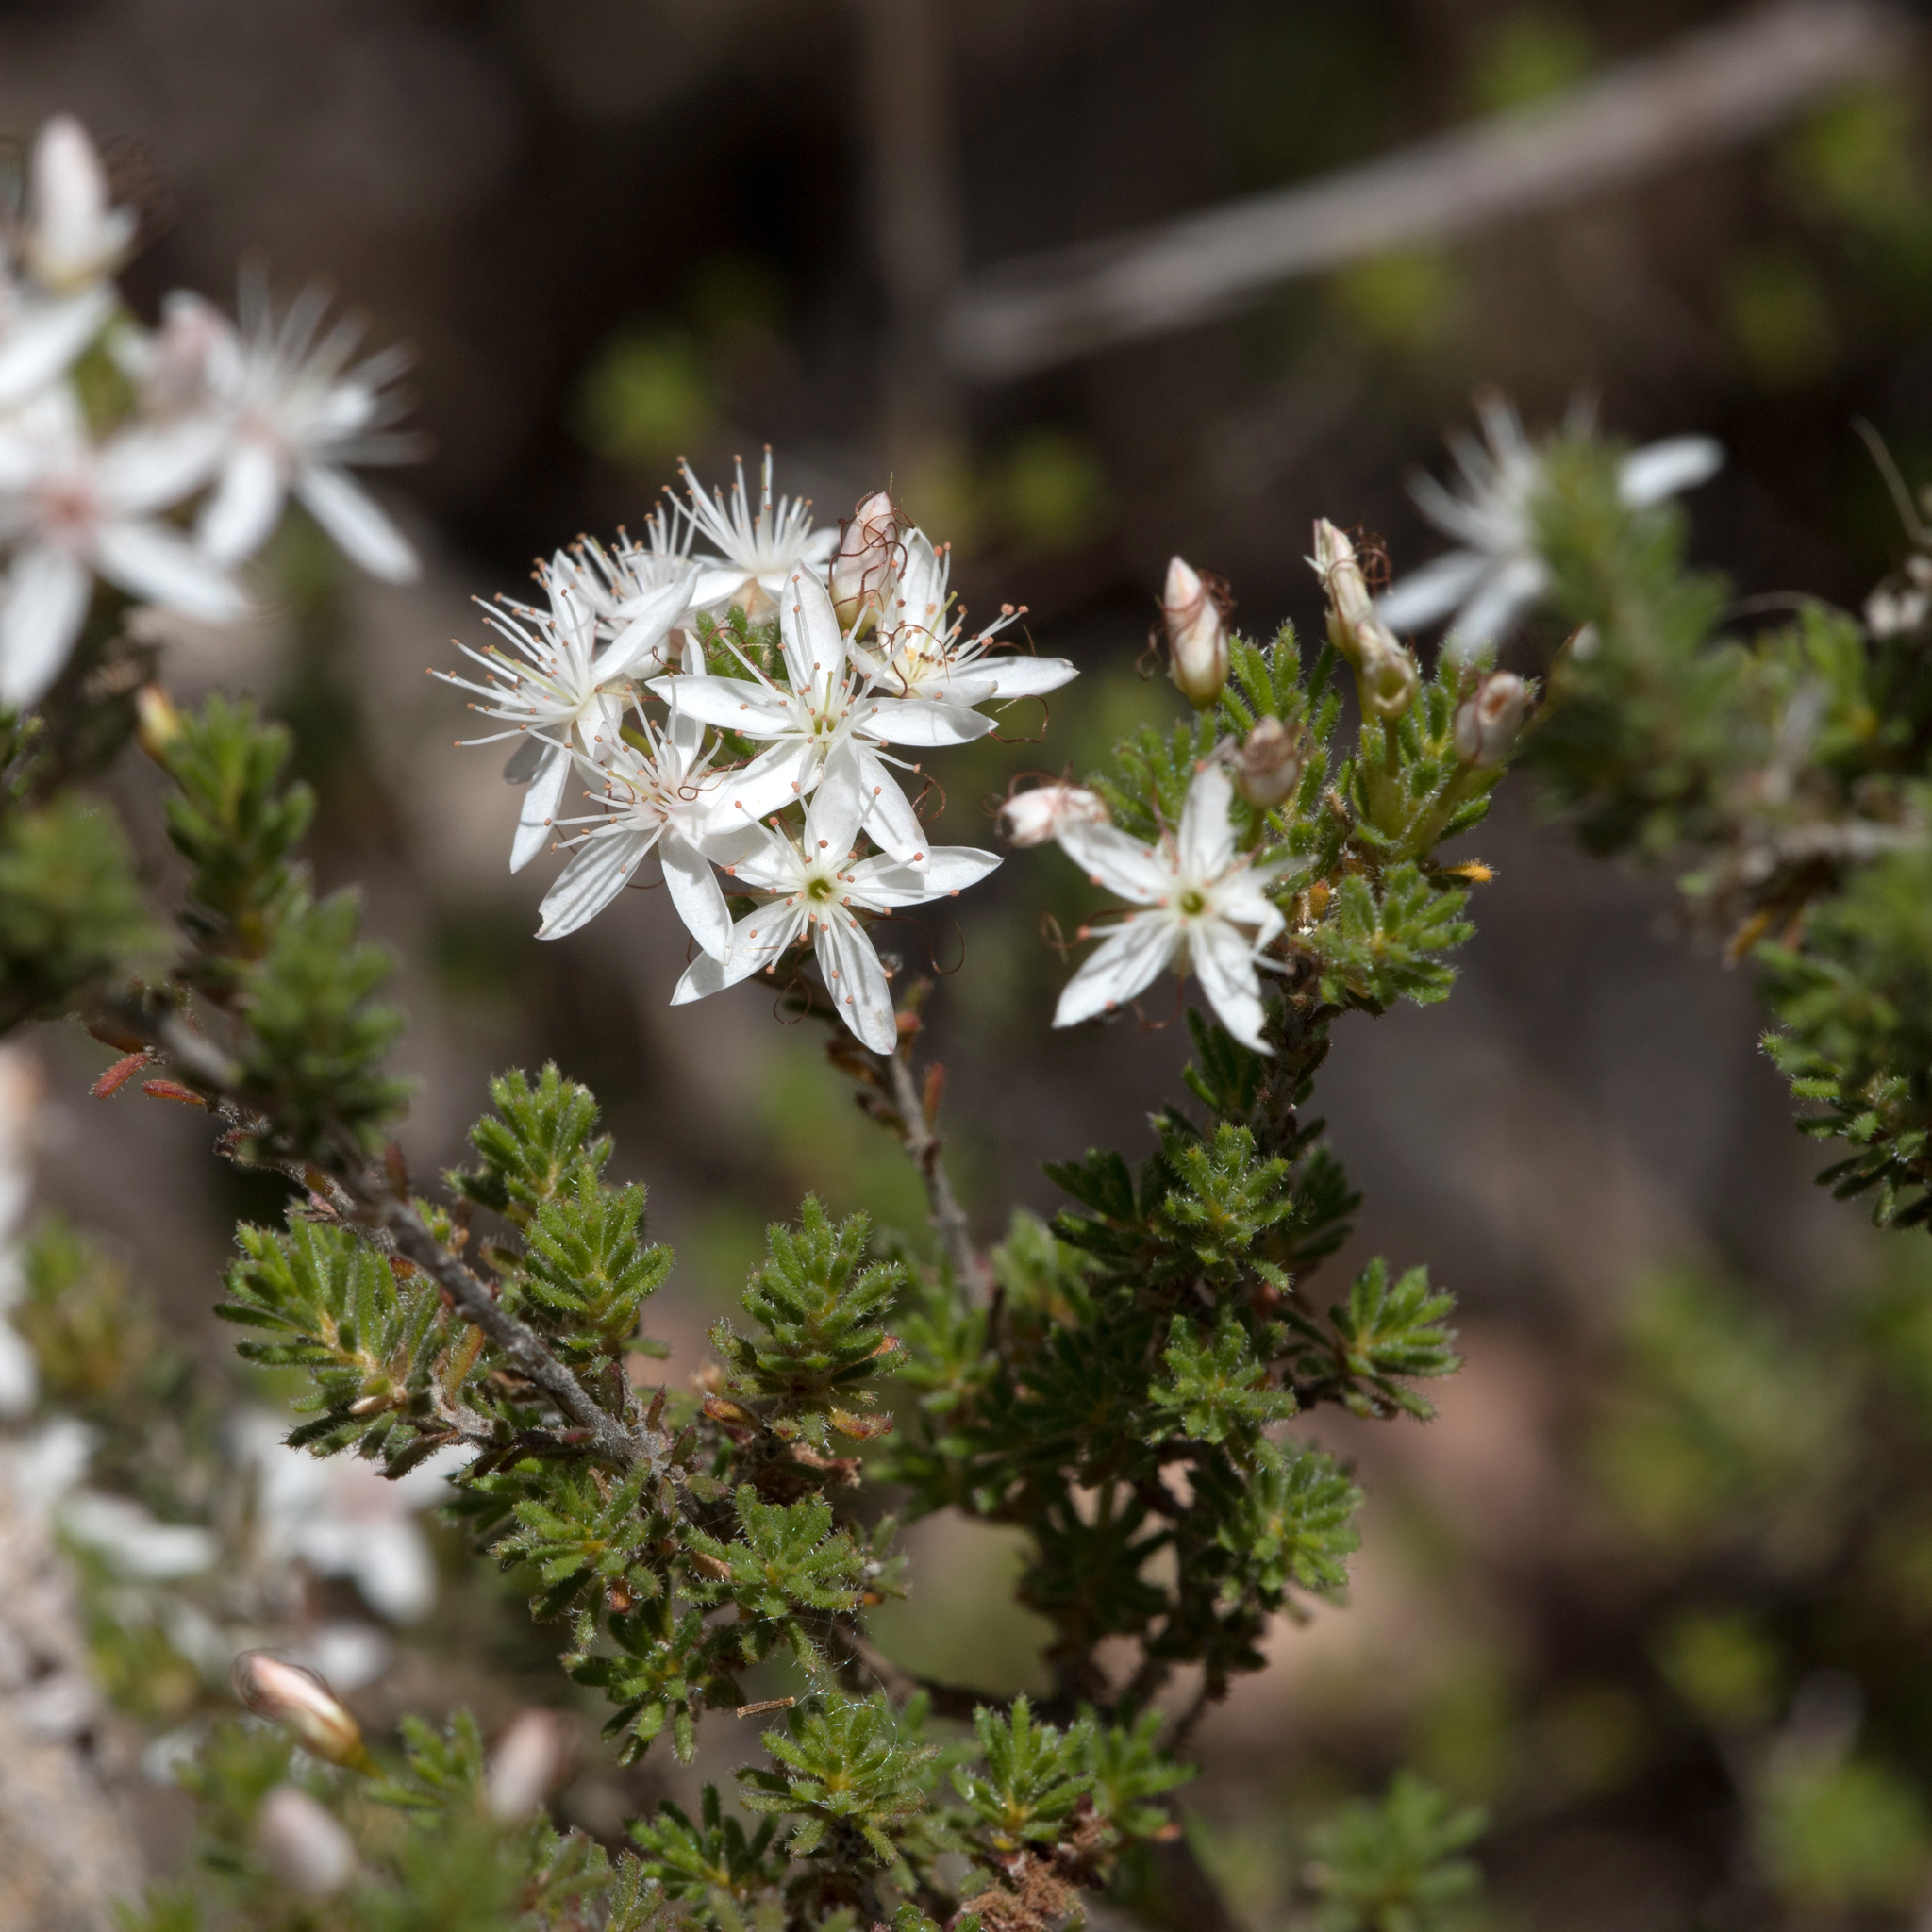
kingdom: Plantae
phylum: Tracheophyta
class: Magnoliopsida
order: Myrtales
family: Myrtaceae
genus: Calytrix
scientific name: Calytrix tetragona
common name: Common fringe myrtle
